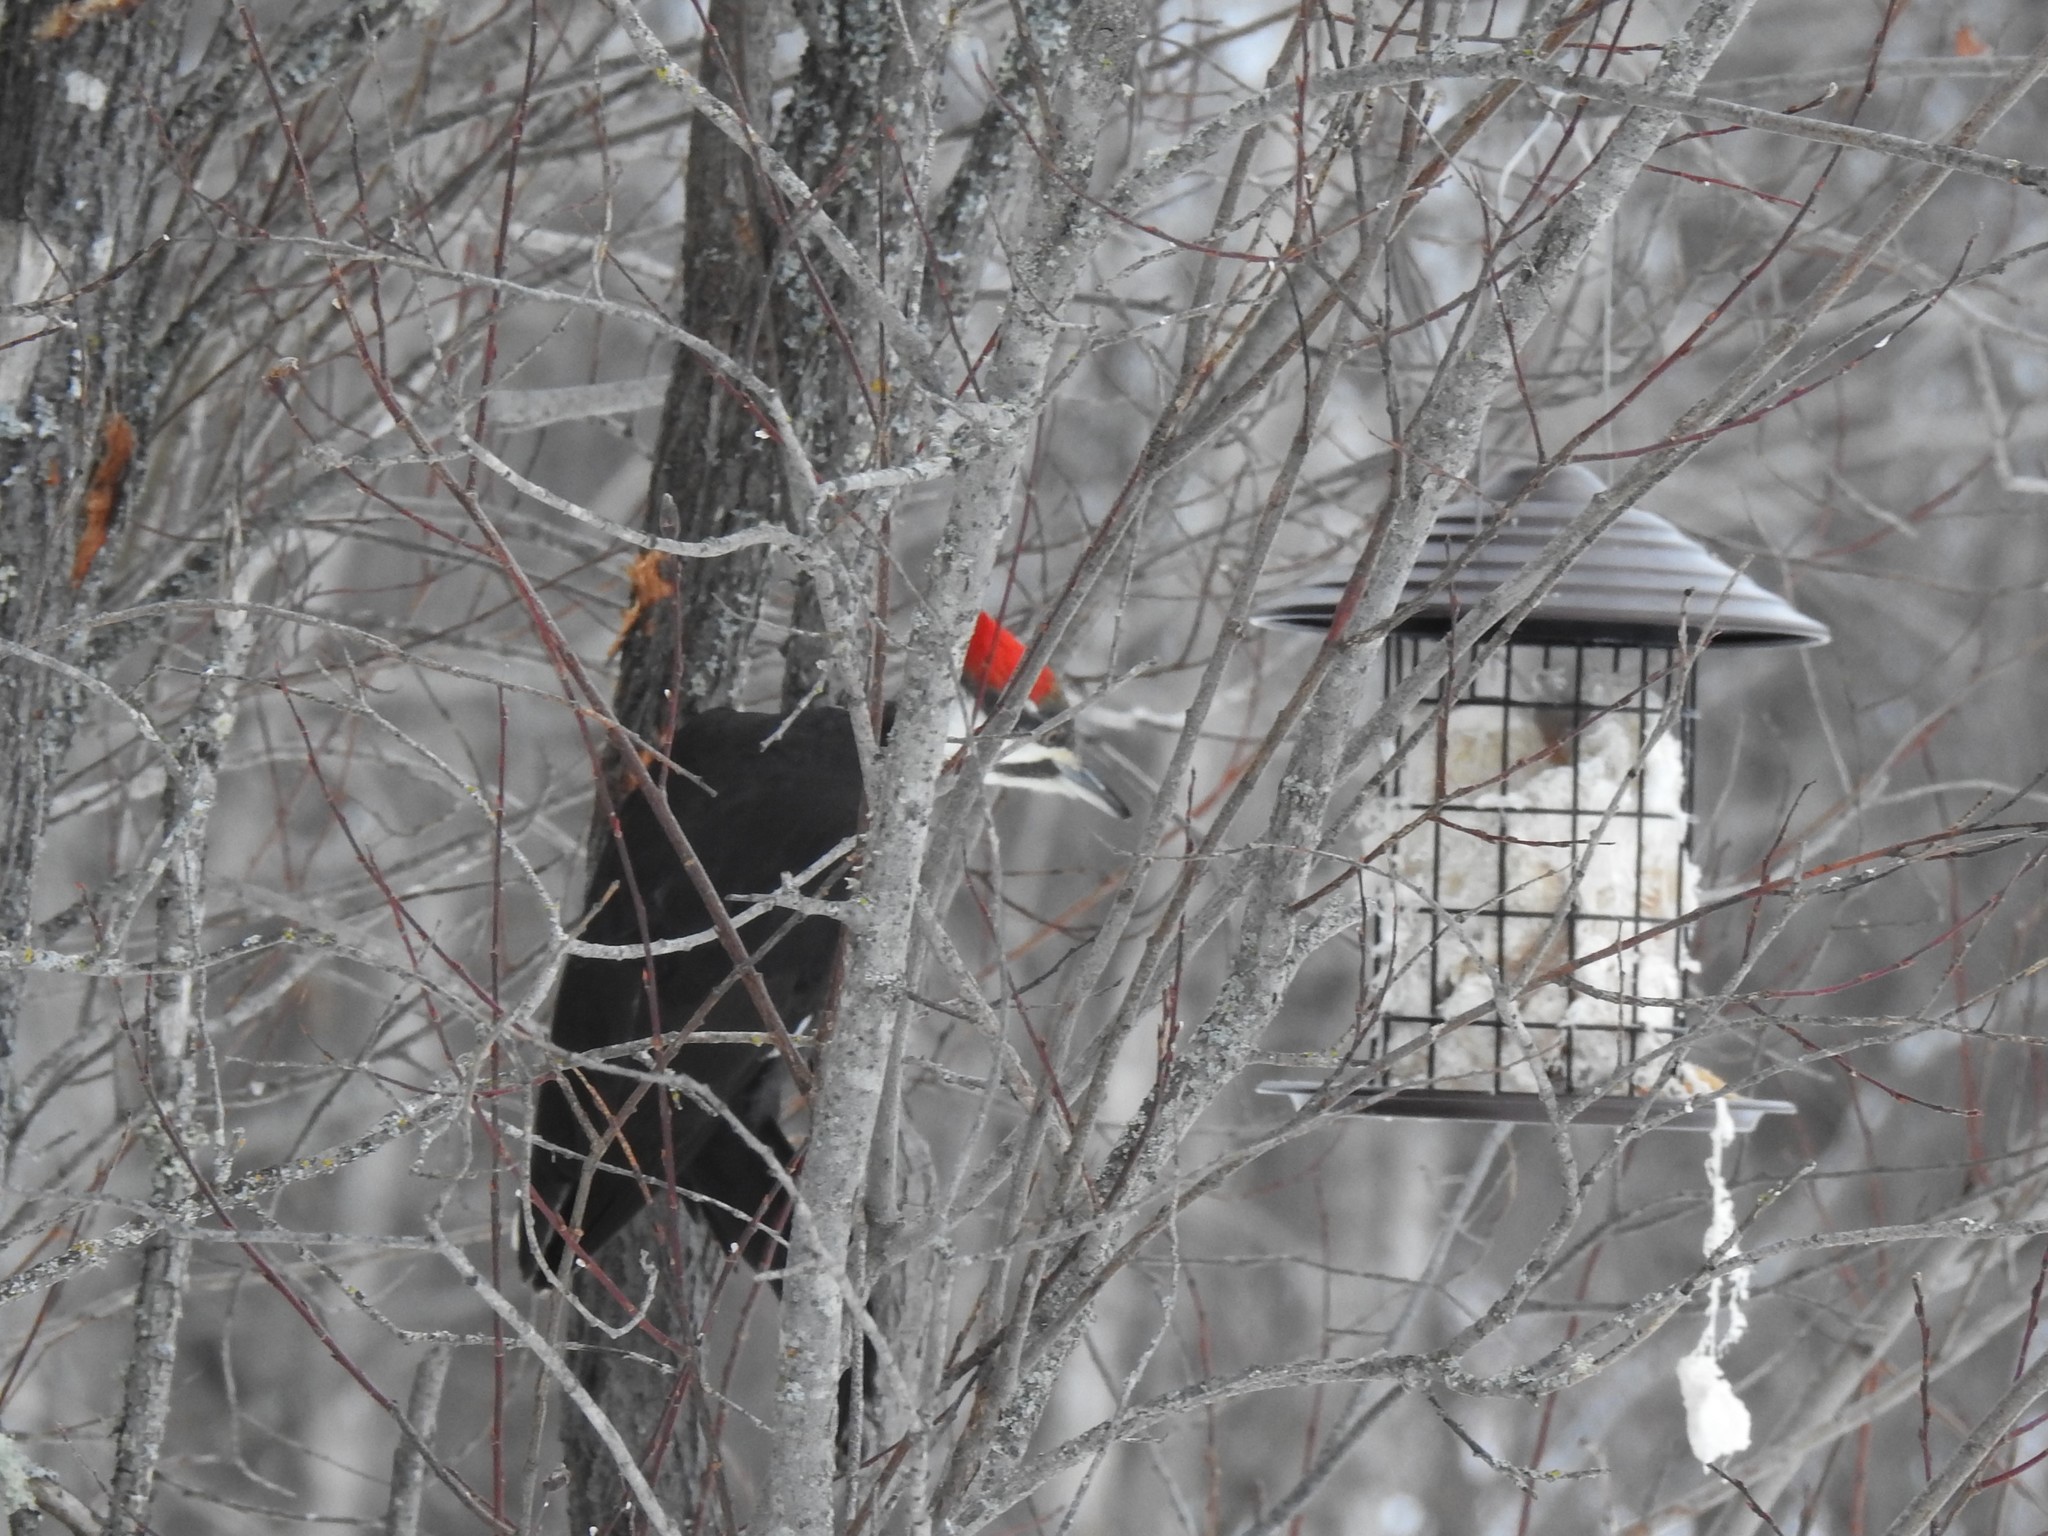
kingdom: Animalia
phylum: Chordata
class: Aves
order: Piciformes
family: Picidae
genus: Dryocopus
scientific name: Dryocopus pileatus
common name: Pileated woodpecker
